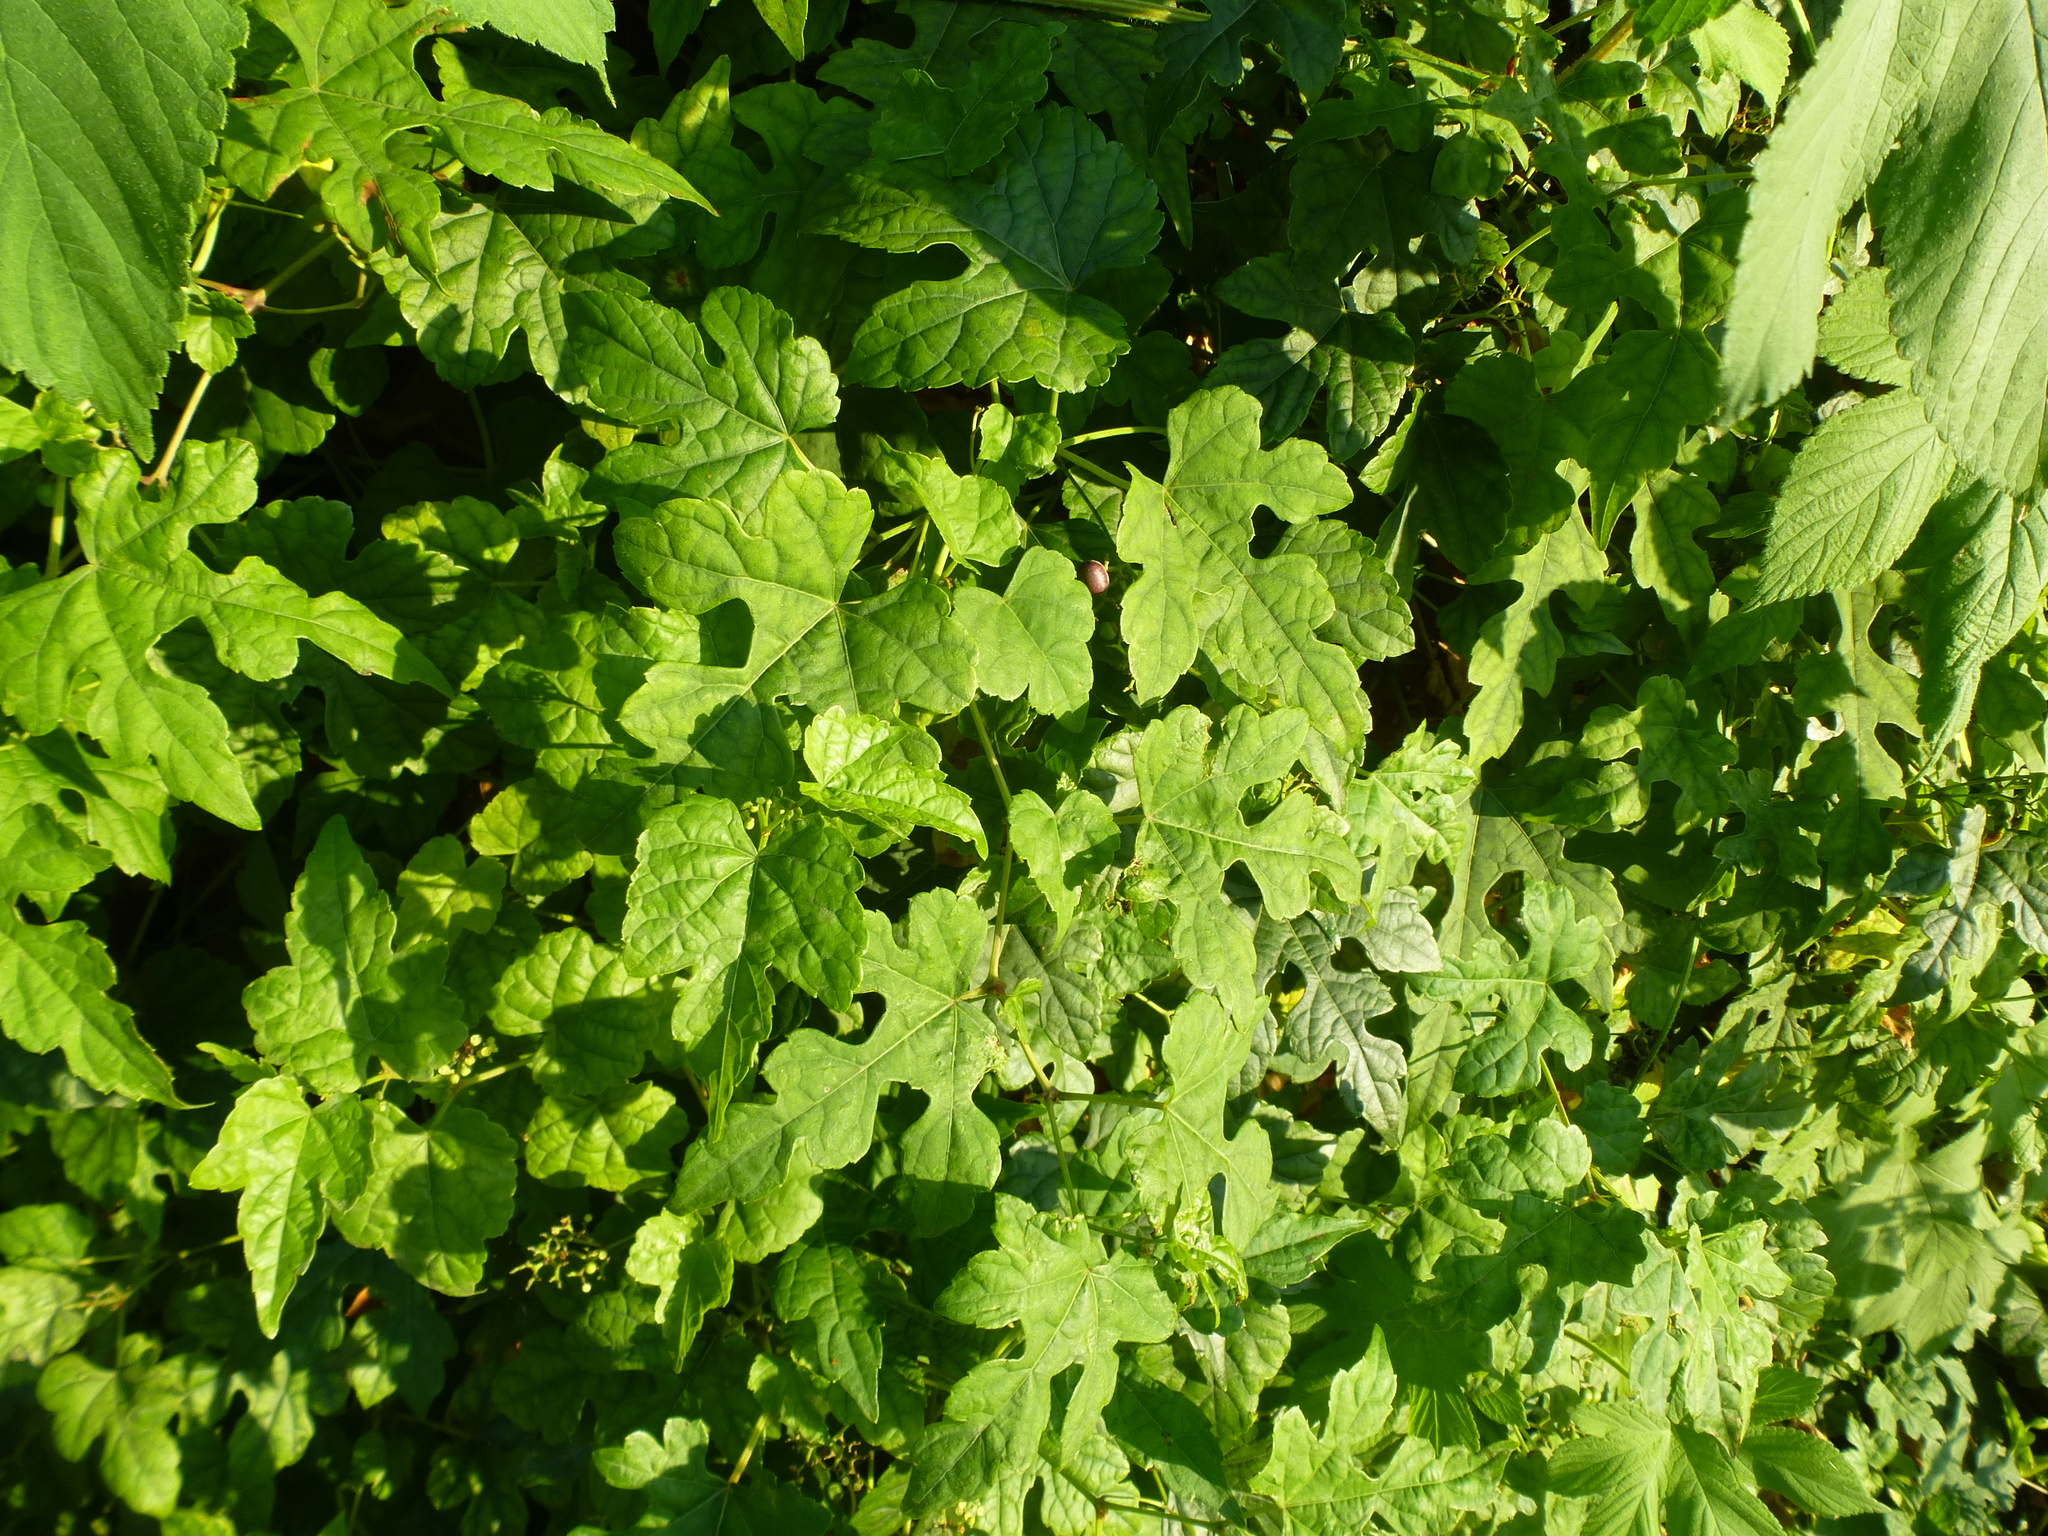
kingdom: Plantae
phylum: Tracheophyta
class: Magnoliopsida
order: Vitales
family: Vitaceae
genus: Ampelopsis
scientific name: Ampelopsis glandulosa
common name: Amur peppervine
